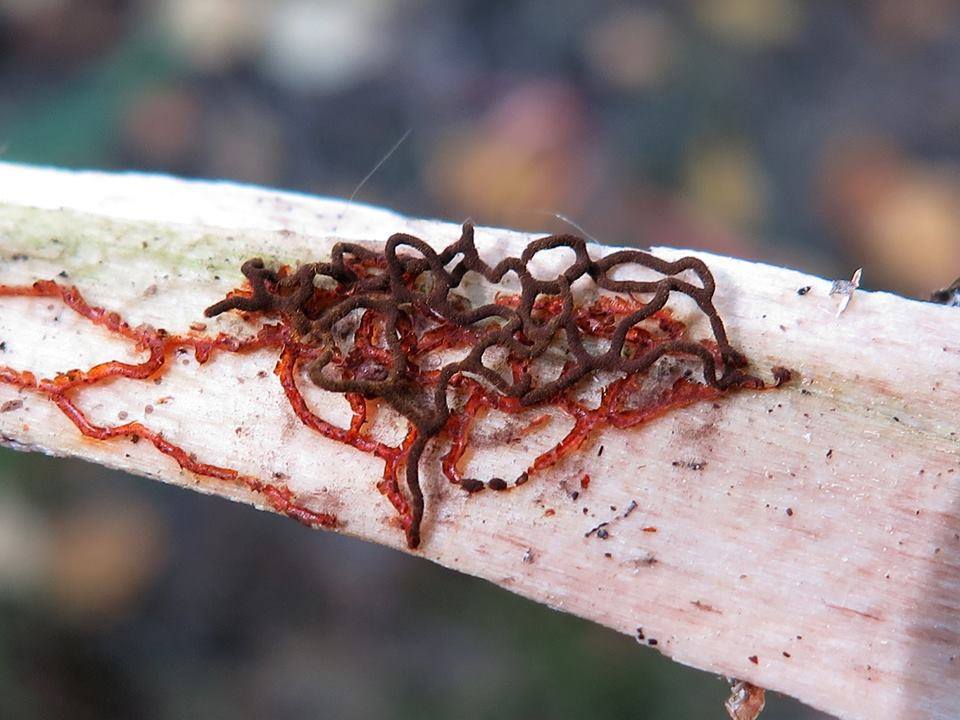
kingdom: Protozoa
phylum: Mycetozoa
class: Myxomycetes
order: Physarales
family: Physaraceae
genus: Willkommlangea
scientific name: Willkommlangea reticulata
